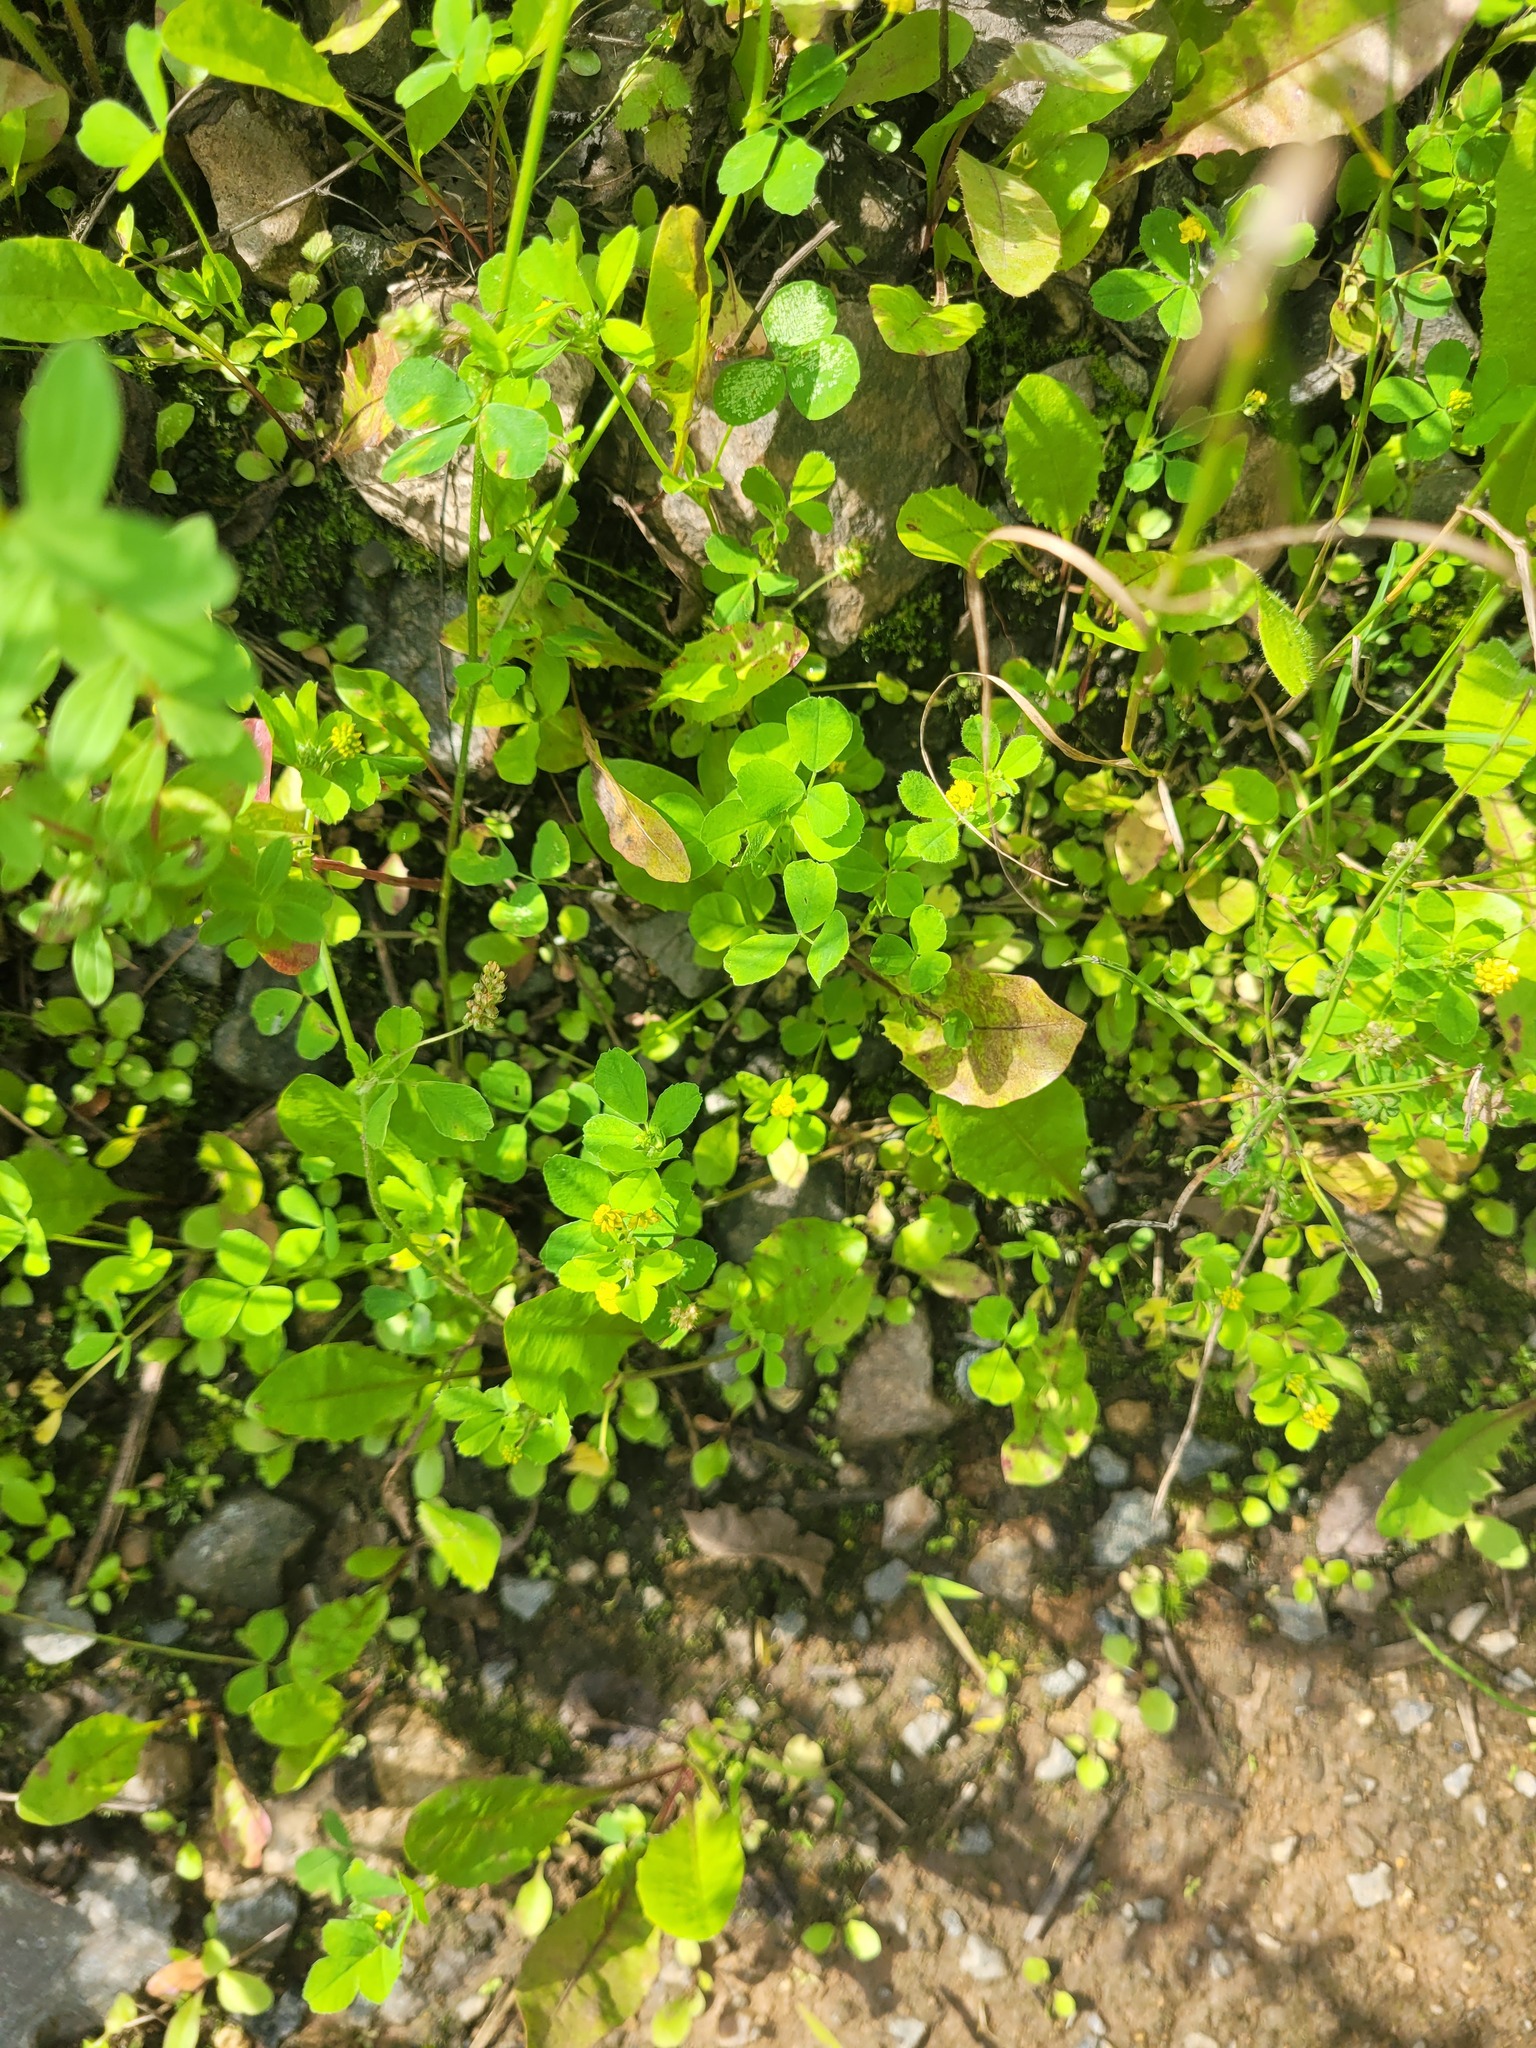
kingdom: Plantae
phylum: Tracheophyta
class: Magnoliopsida
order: Fabales
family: Fabaceae
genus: Medicago
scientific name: Medicago lupulina
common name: Black medick
